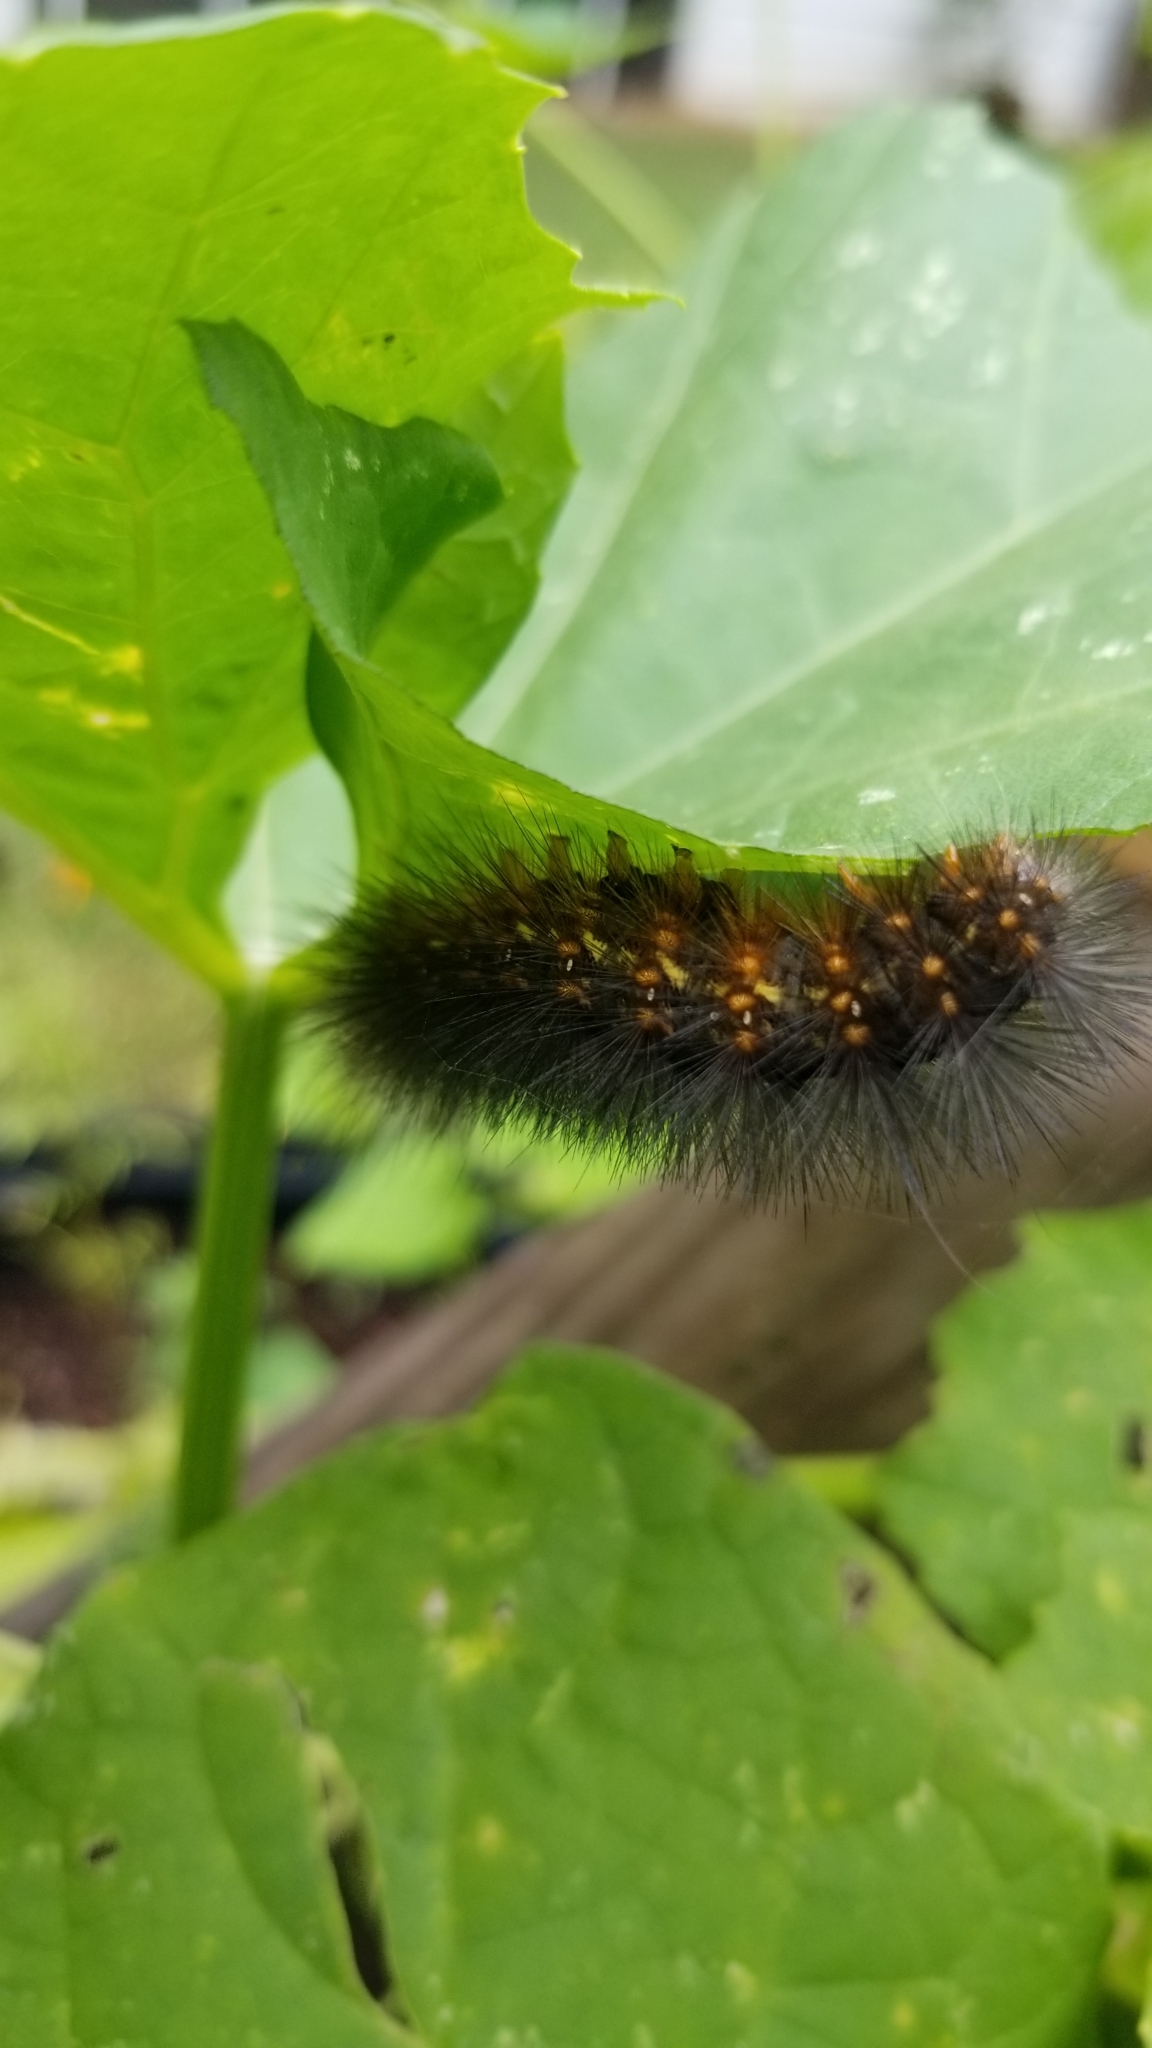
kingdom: Animalia
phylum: Arthropoda
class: Insecta
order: Lepidoptera
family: Erebidae
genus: Estigmene
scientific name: Estigmene acrea
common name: Salt marsh moth
